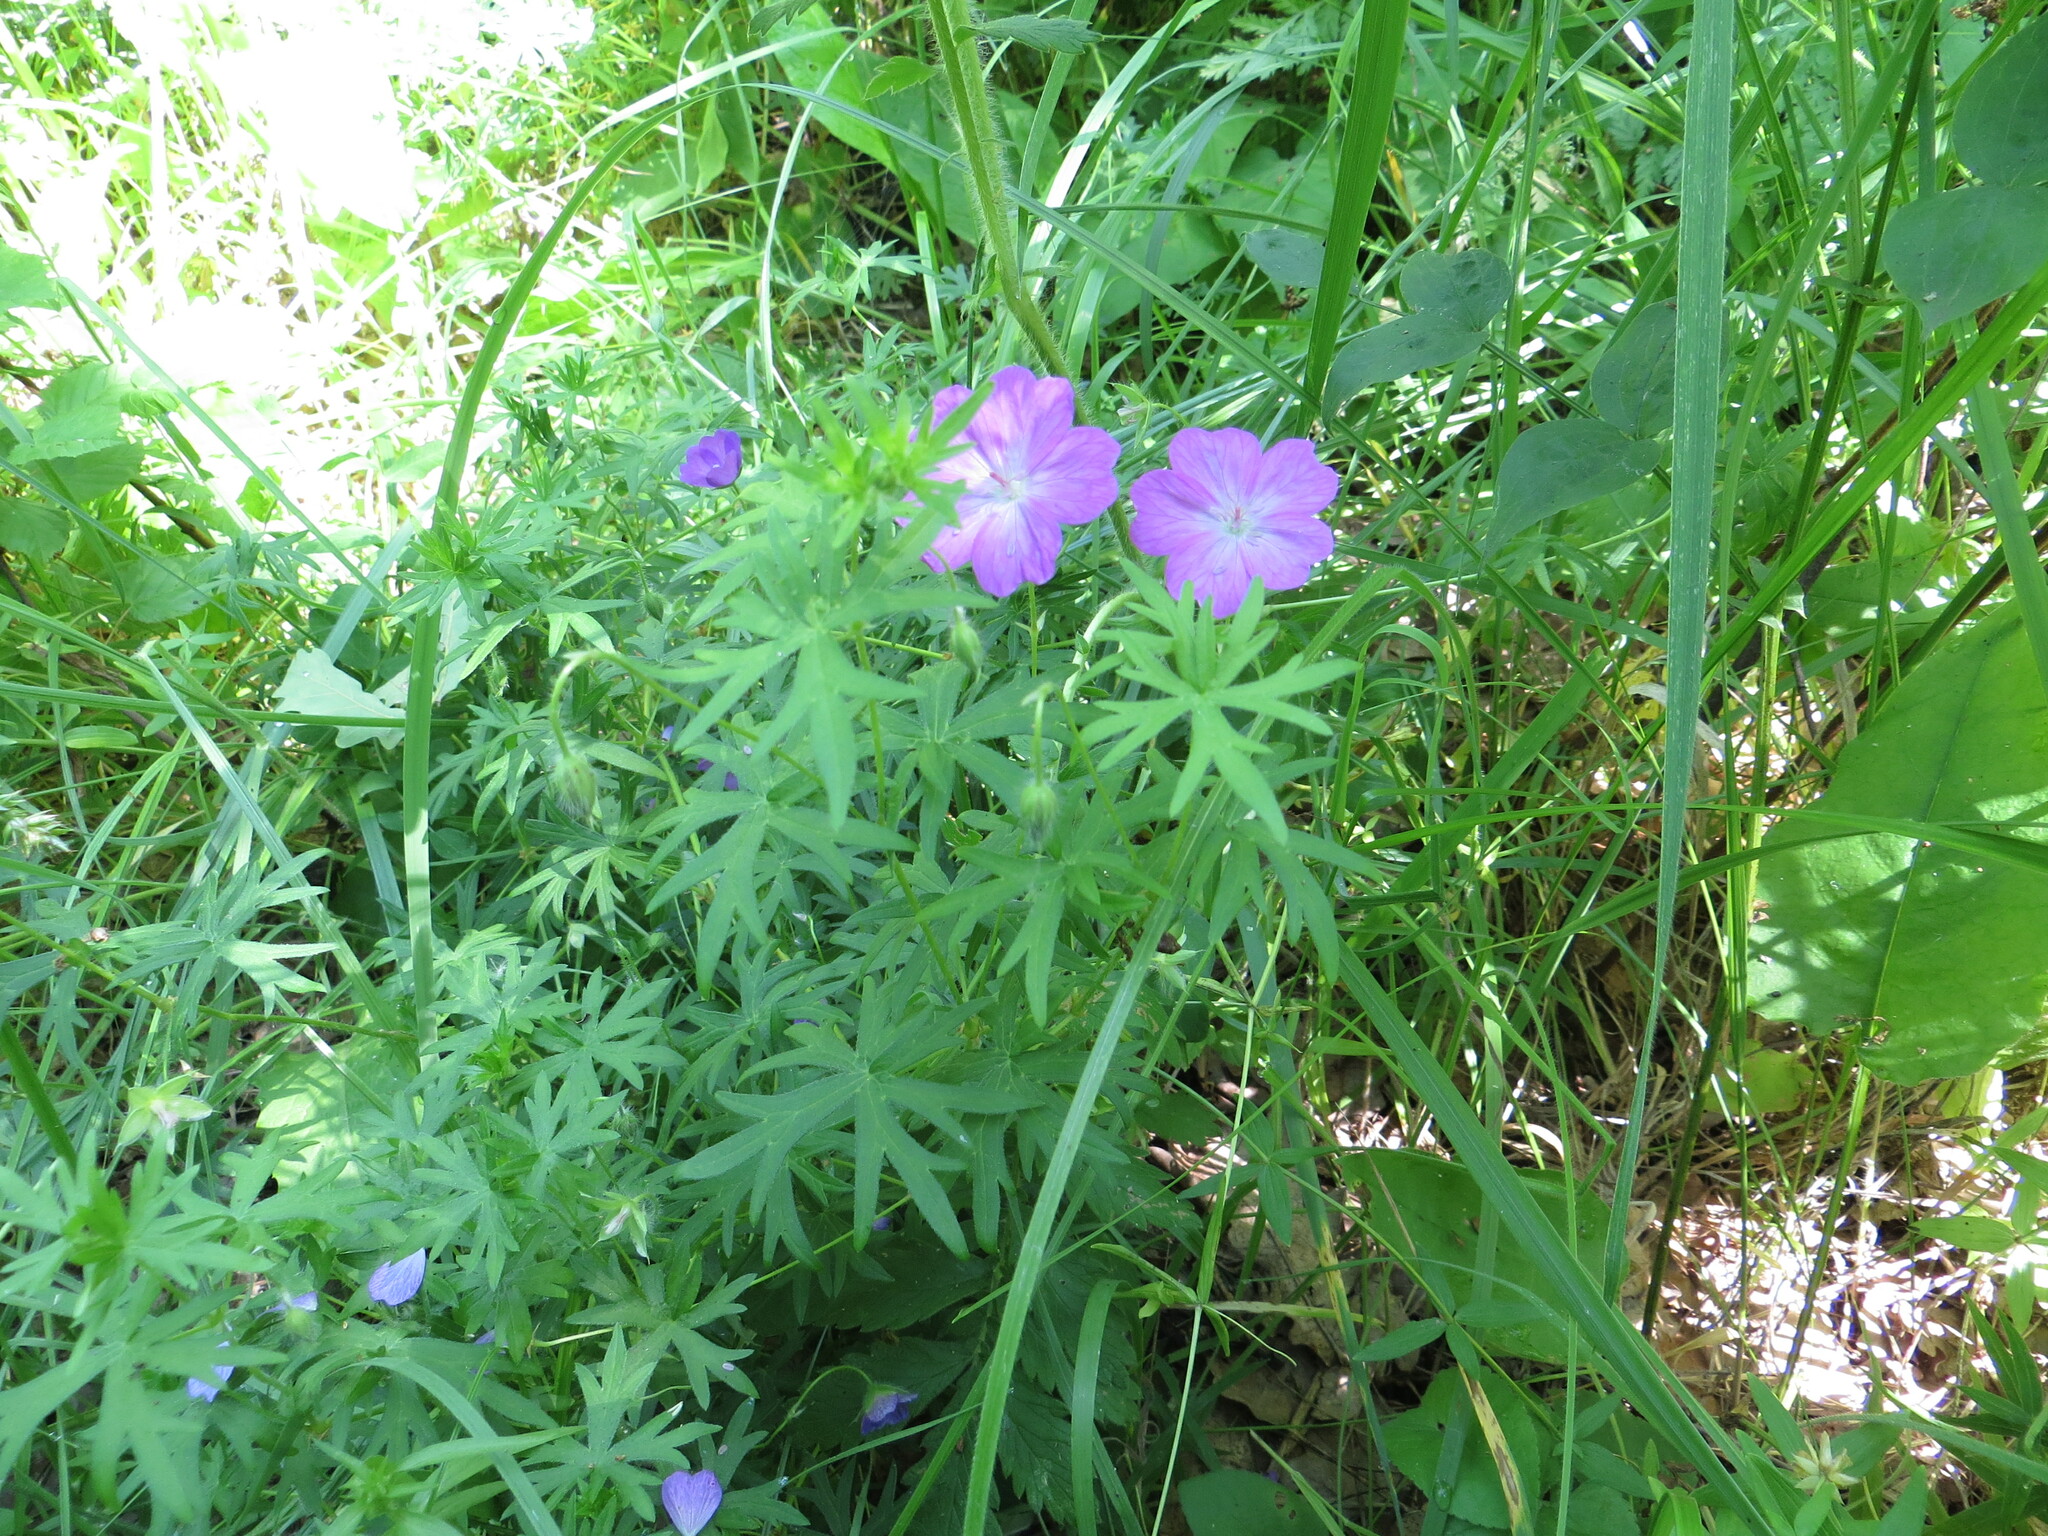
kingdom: Plantae
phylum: Tracheophyta
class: Magnoliopsida
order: Geraniales
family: Geraniaceae
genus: Geranium
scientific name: Geranium sanguineum
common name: Bloody crane's-bill
